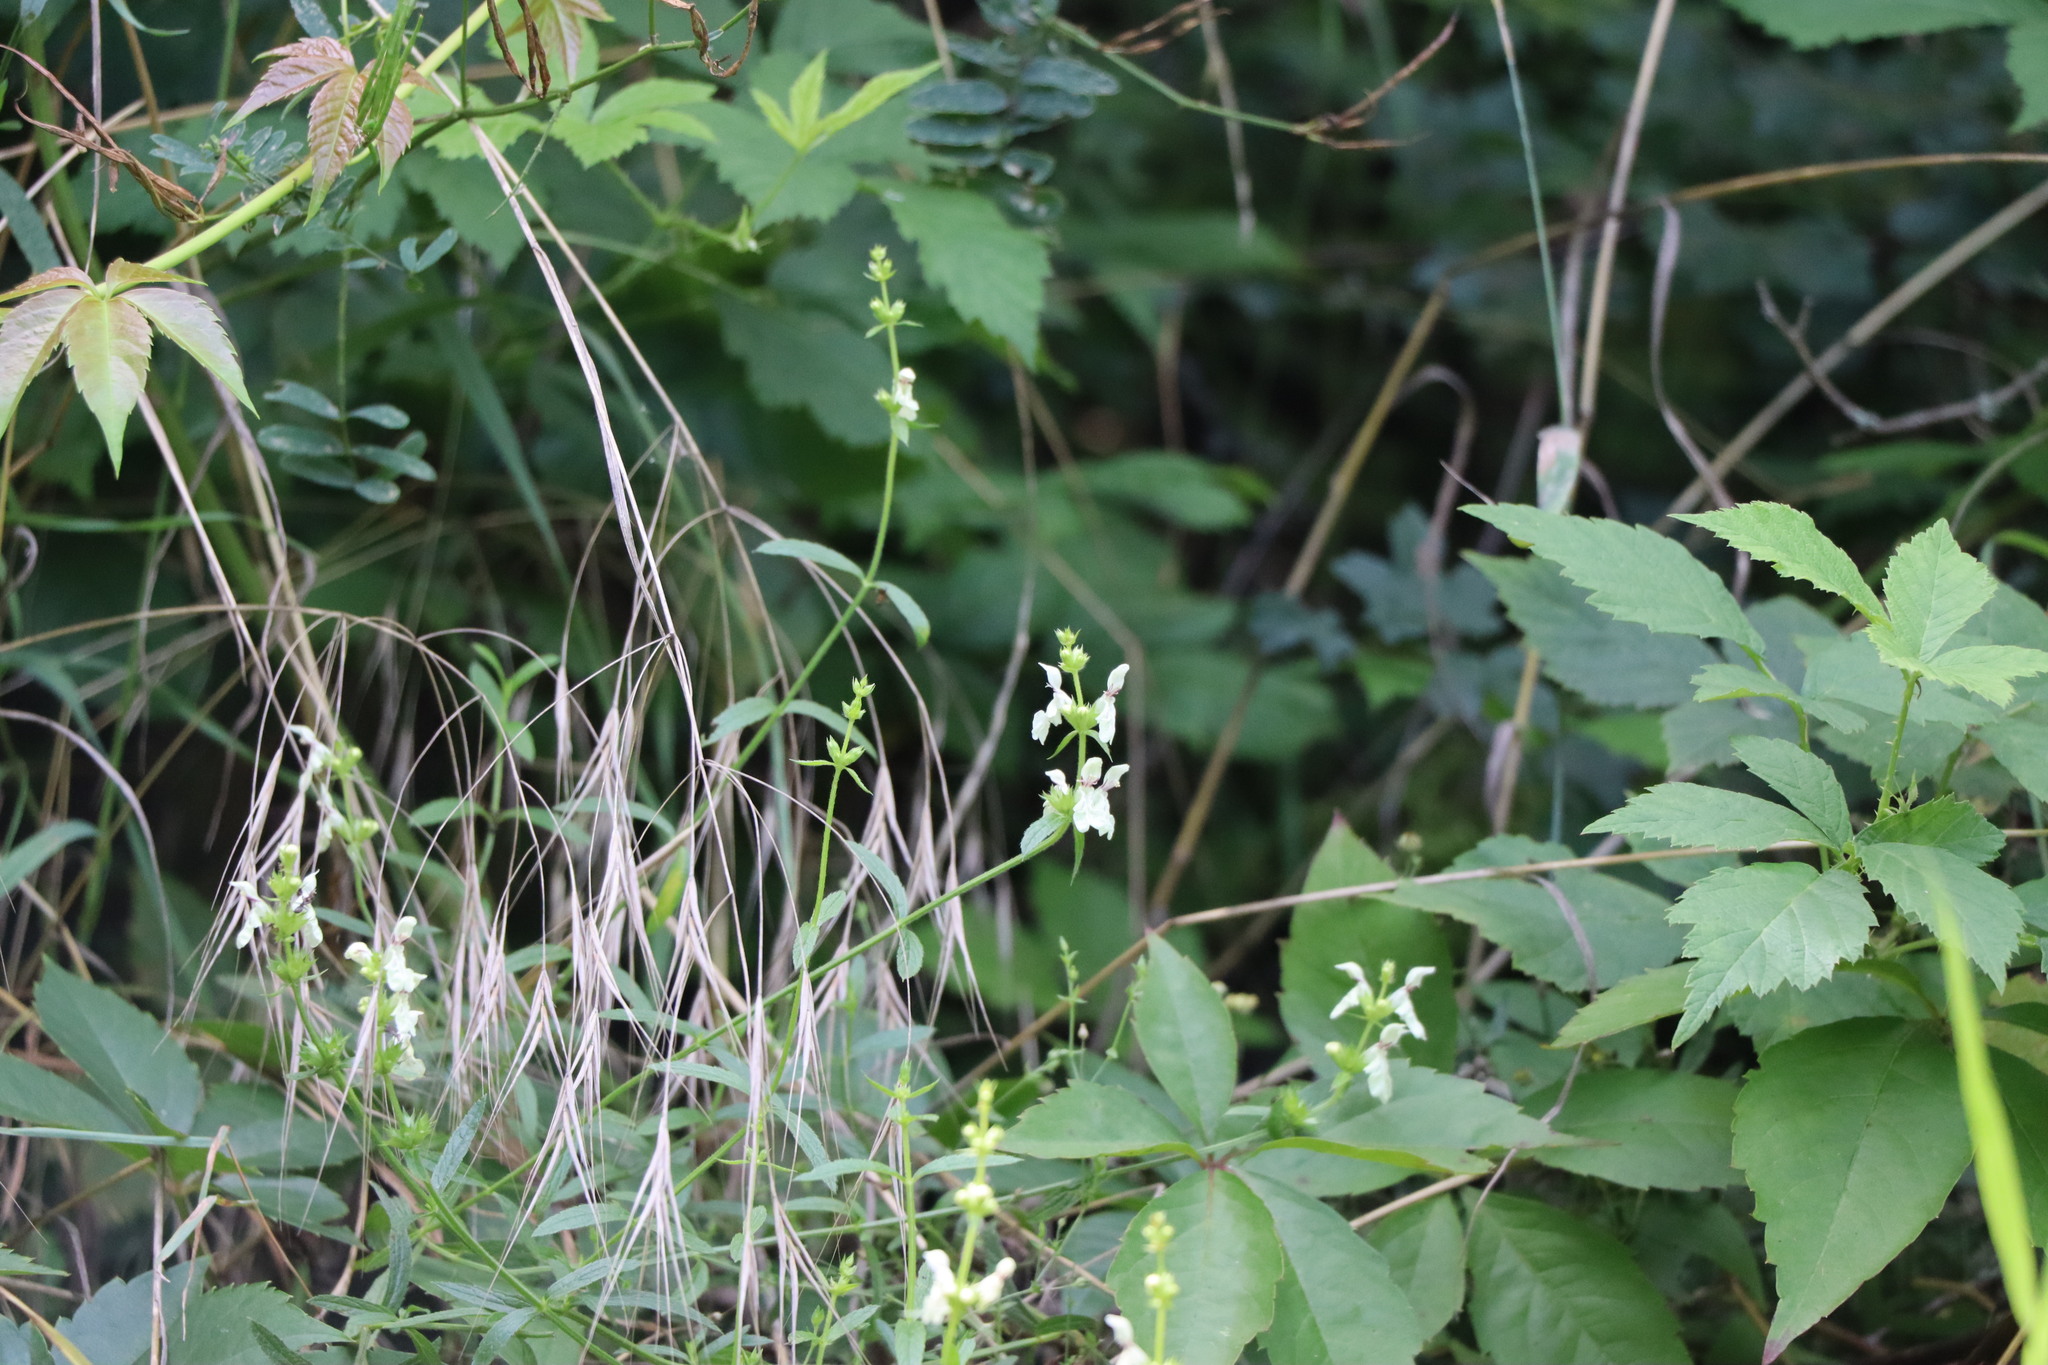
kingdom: Plantae
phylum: Tracheophyta
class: Magnoliopsida
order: Lamiales
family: Lamiaceae
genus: Stachys
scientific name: Stachys recta
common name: Perennial yellow-woundwort
